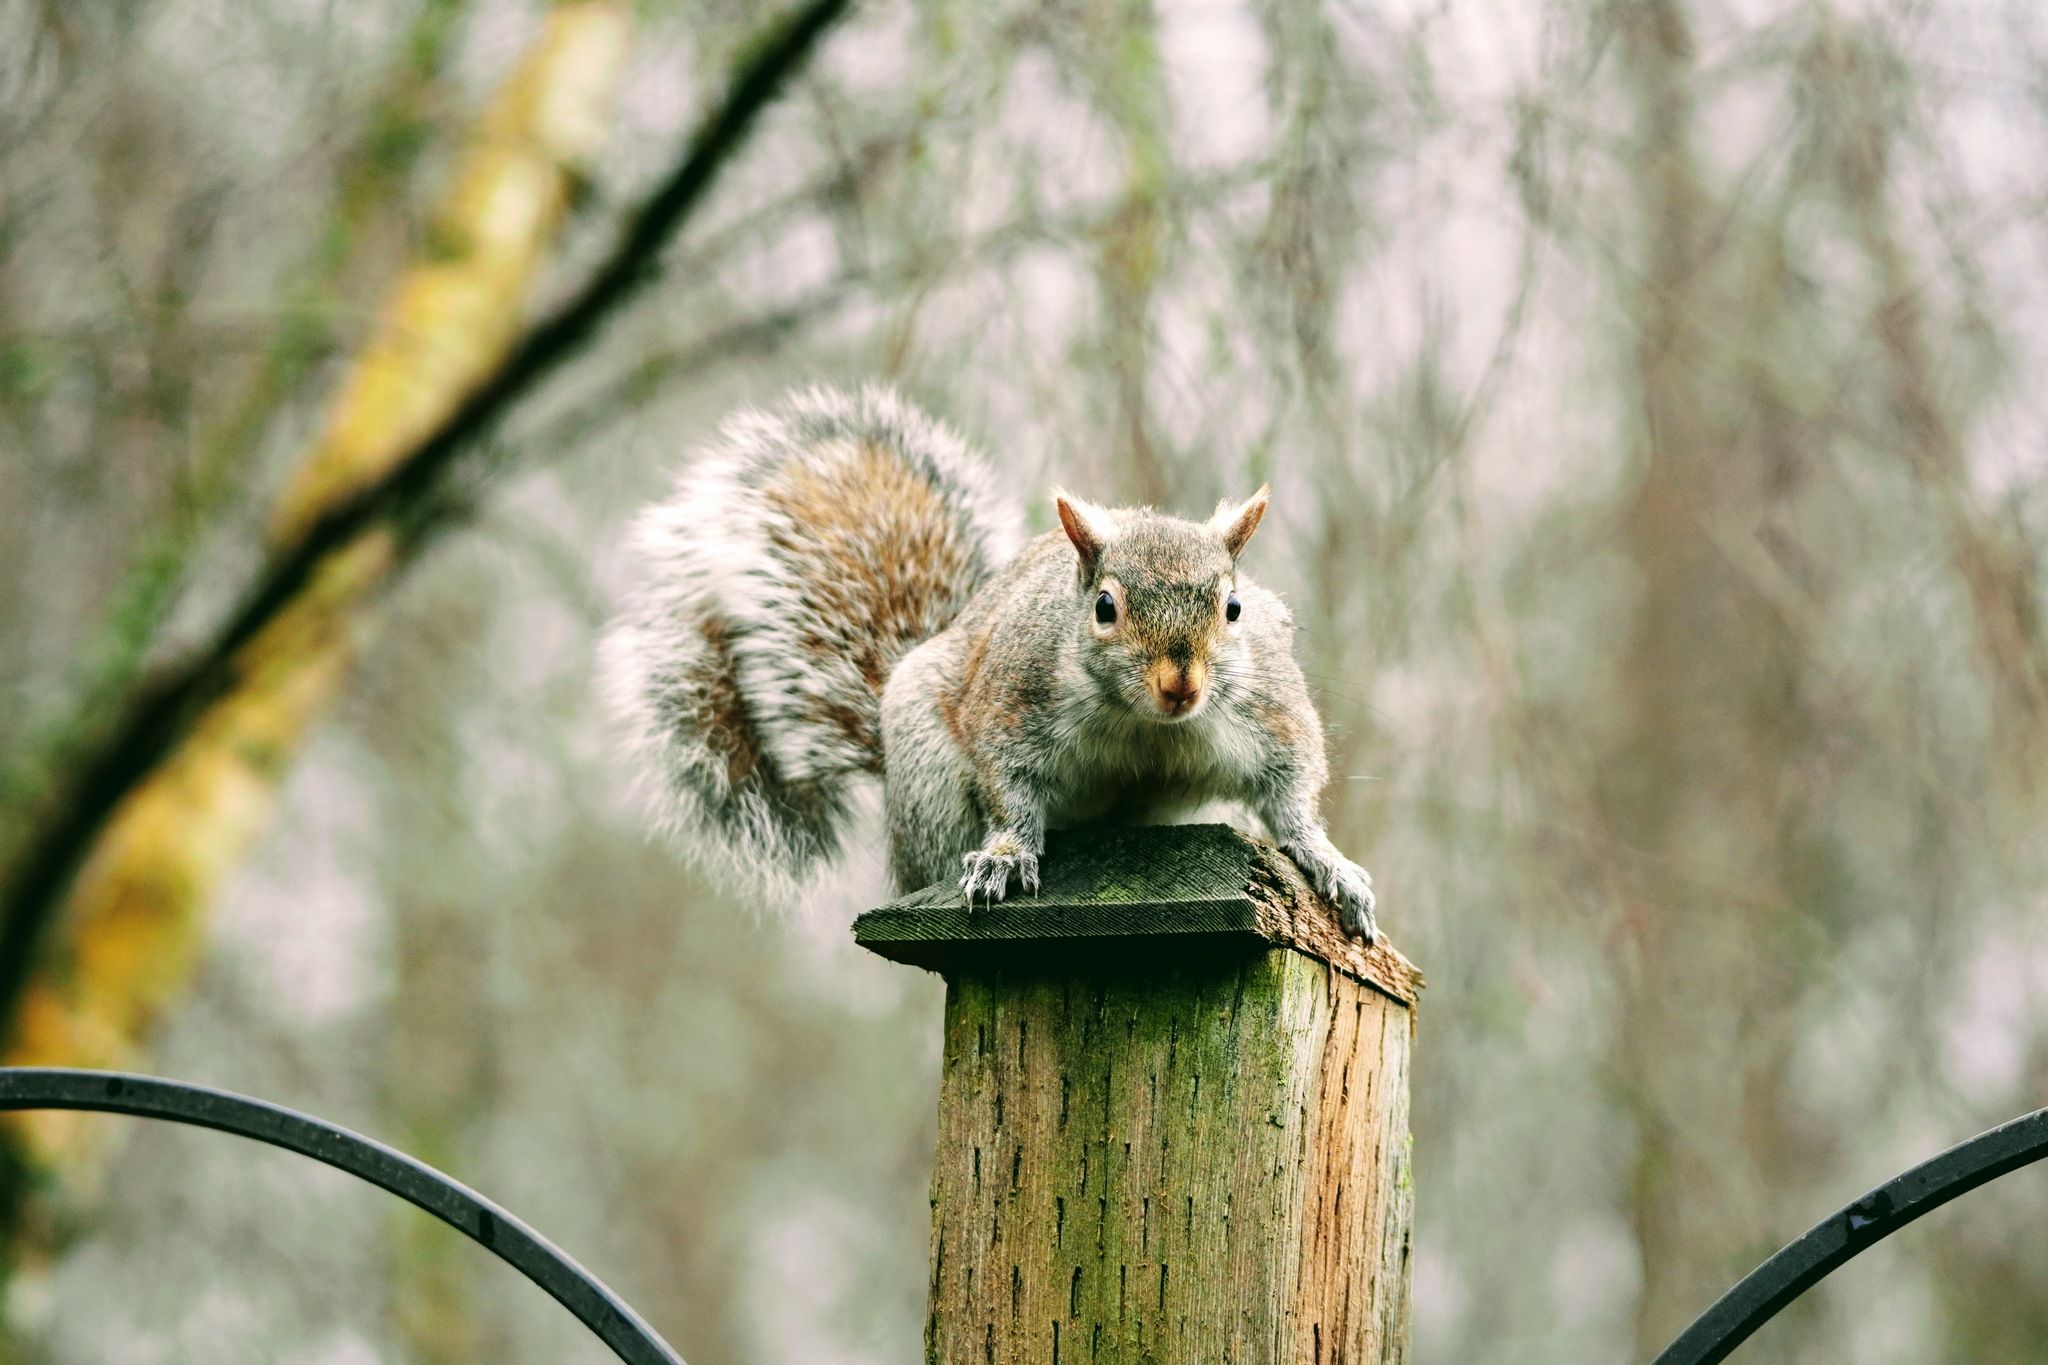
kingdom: Animalia
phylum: Chordata
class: Mammalia
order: Rodentia
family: Sciuridae
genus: Sciurus
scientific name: Sciurus carolinensis
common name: Eastern gray squirrel
